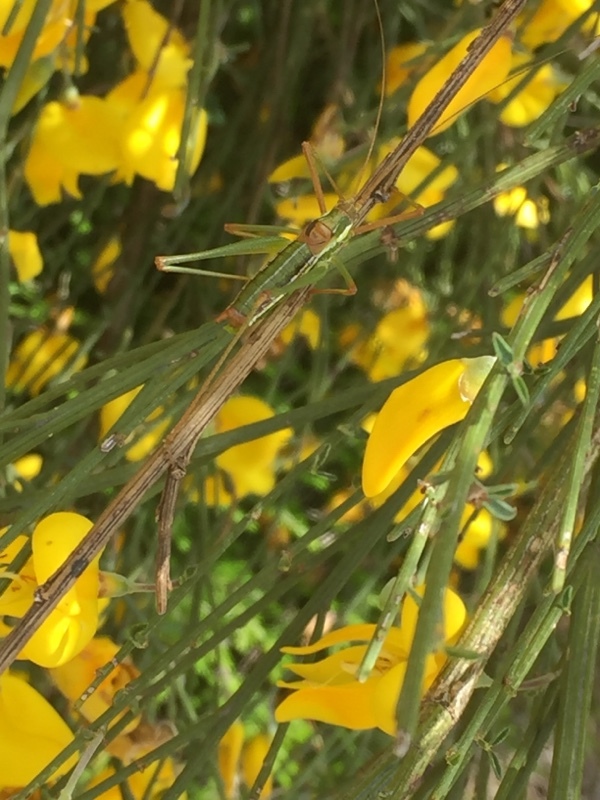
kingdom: Animalia
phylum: Arthropoda
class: Insecta
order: Orthoptera
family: Tettigoniidae
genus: Odontura
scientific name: Odontura macphersoni
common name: Macpherson's striped bush-cricket
